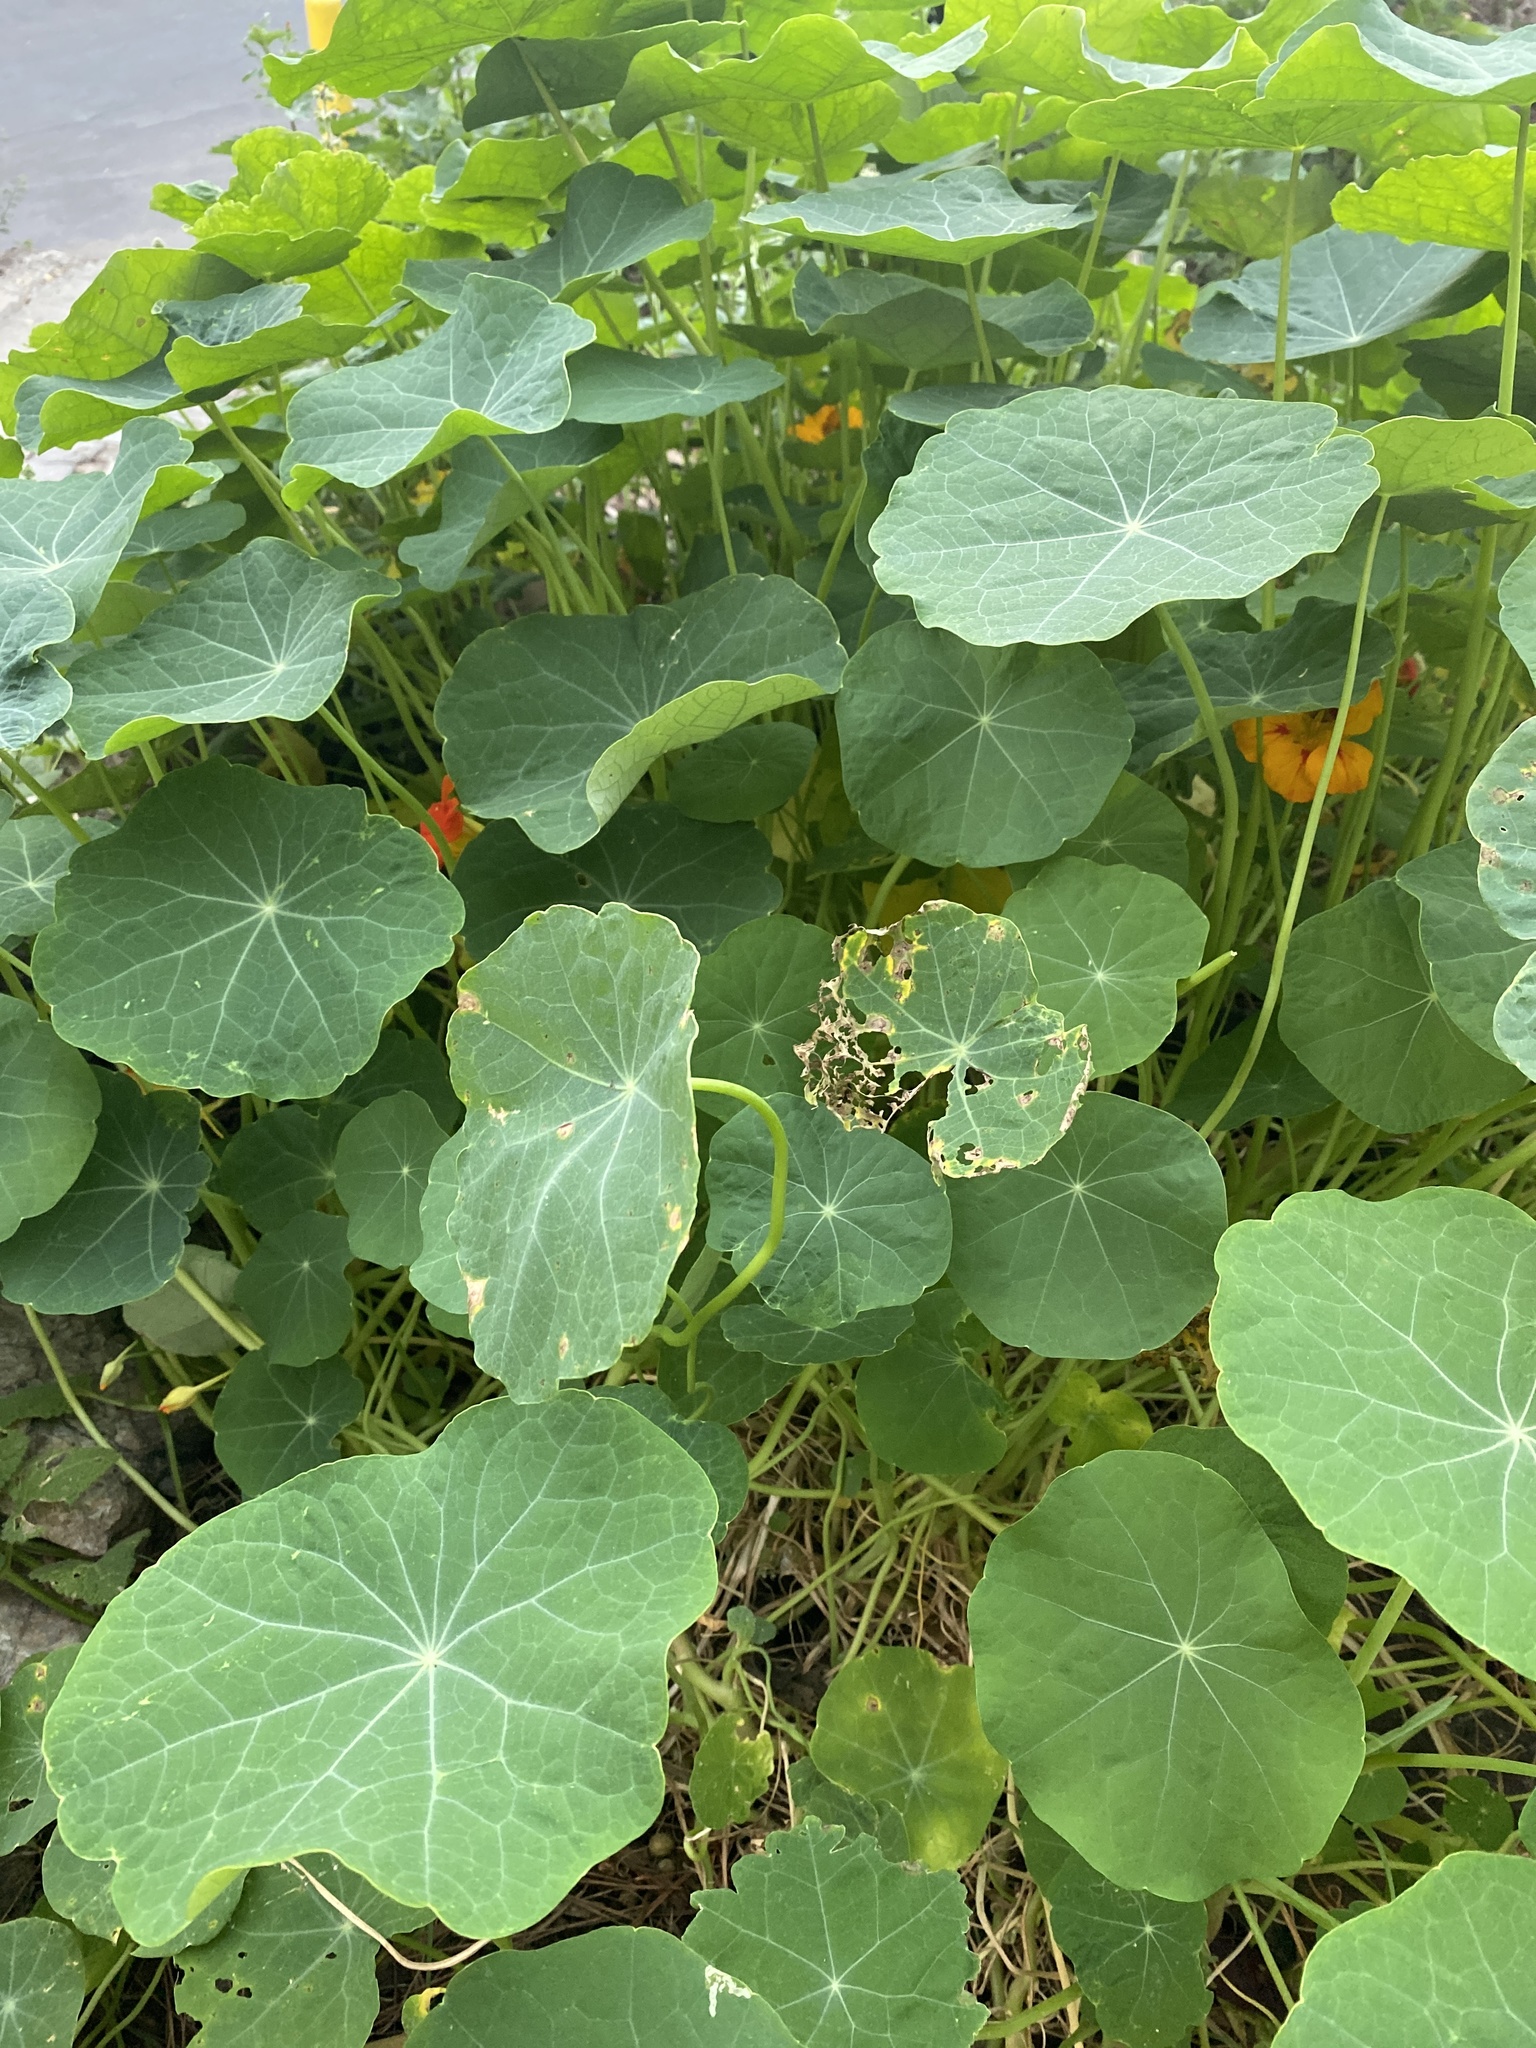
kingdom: Plantae
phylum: Tracheophyta
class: Magnoliopsida
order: Brassicales
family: Tropaeolaceae
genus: Tropaeolum
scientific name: Tropaeolum majus
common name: Nasturtium
